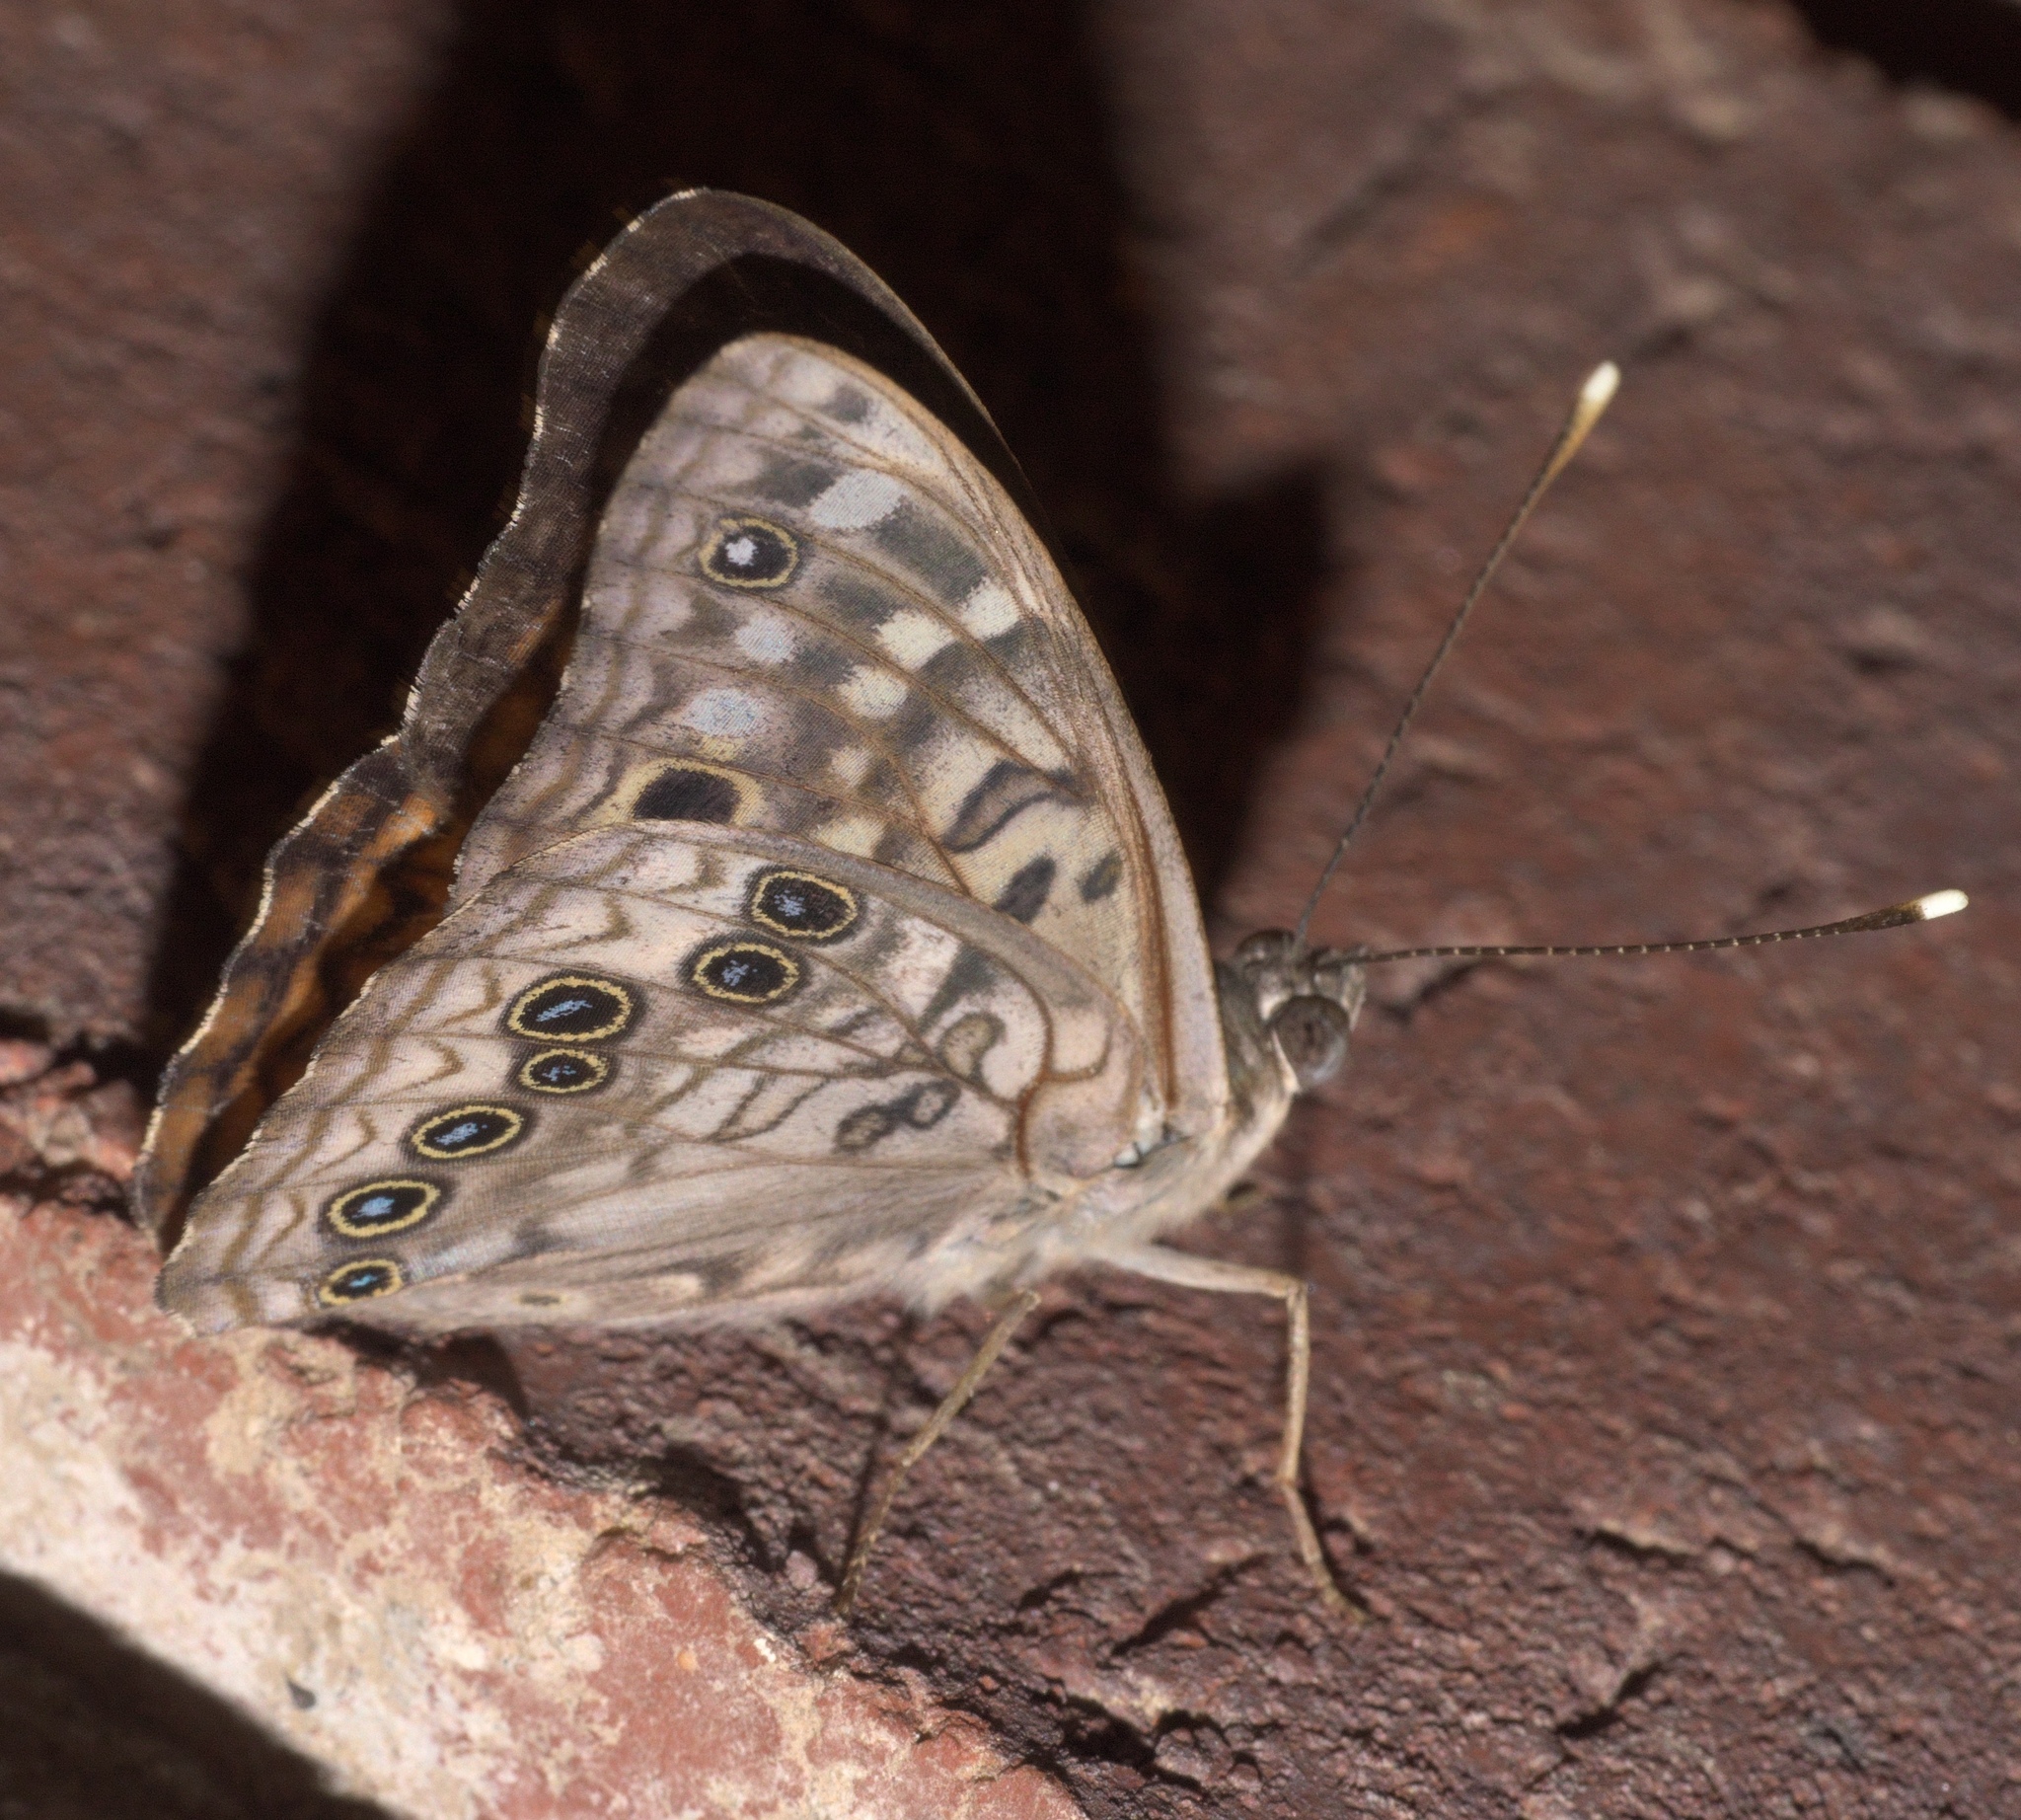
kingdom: Animalia
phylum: Arthropoda
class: Insecta
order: Lepidoptera
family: Nymphalidae
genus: Asterocampa
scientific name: Asterocampa celtis
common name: Hackberry emperor
